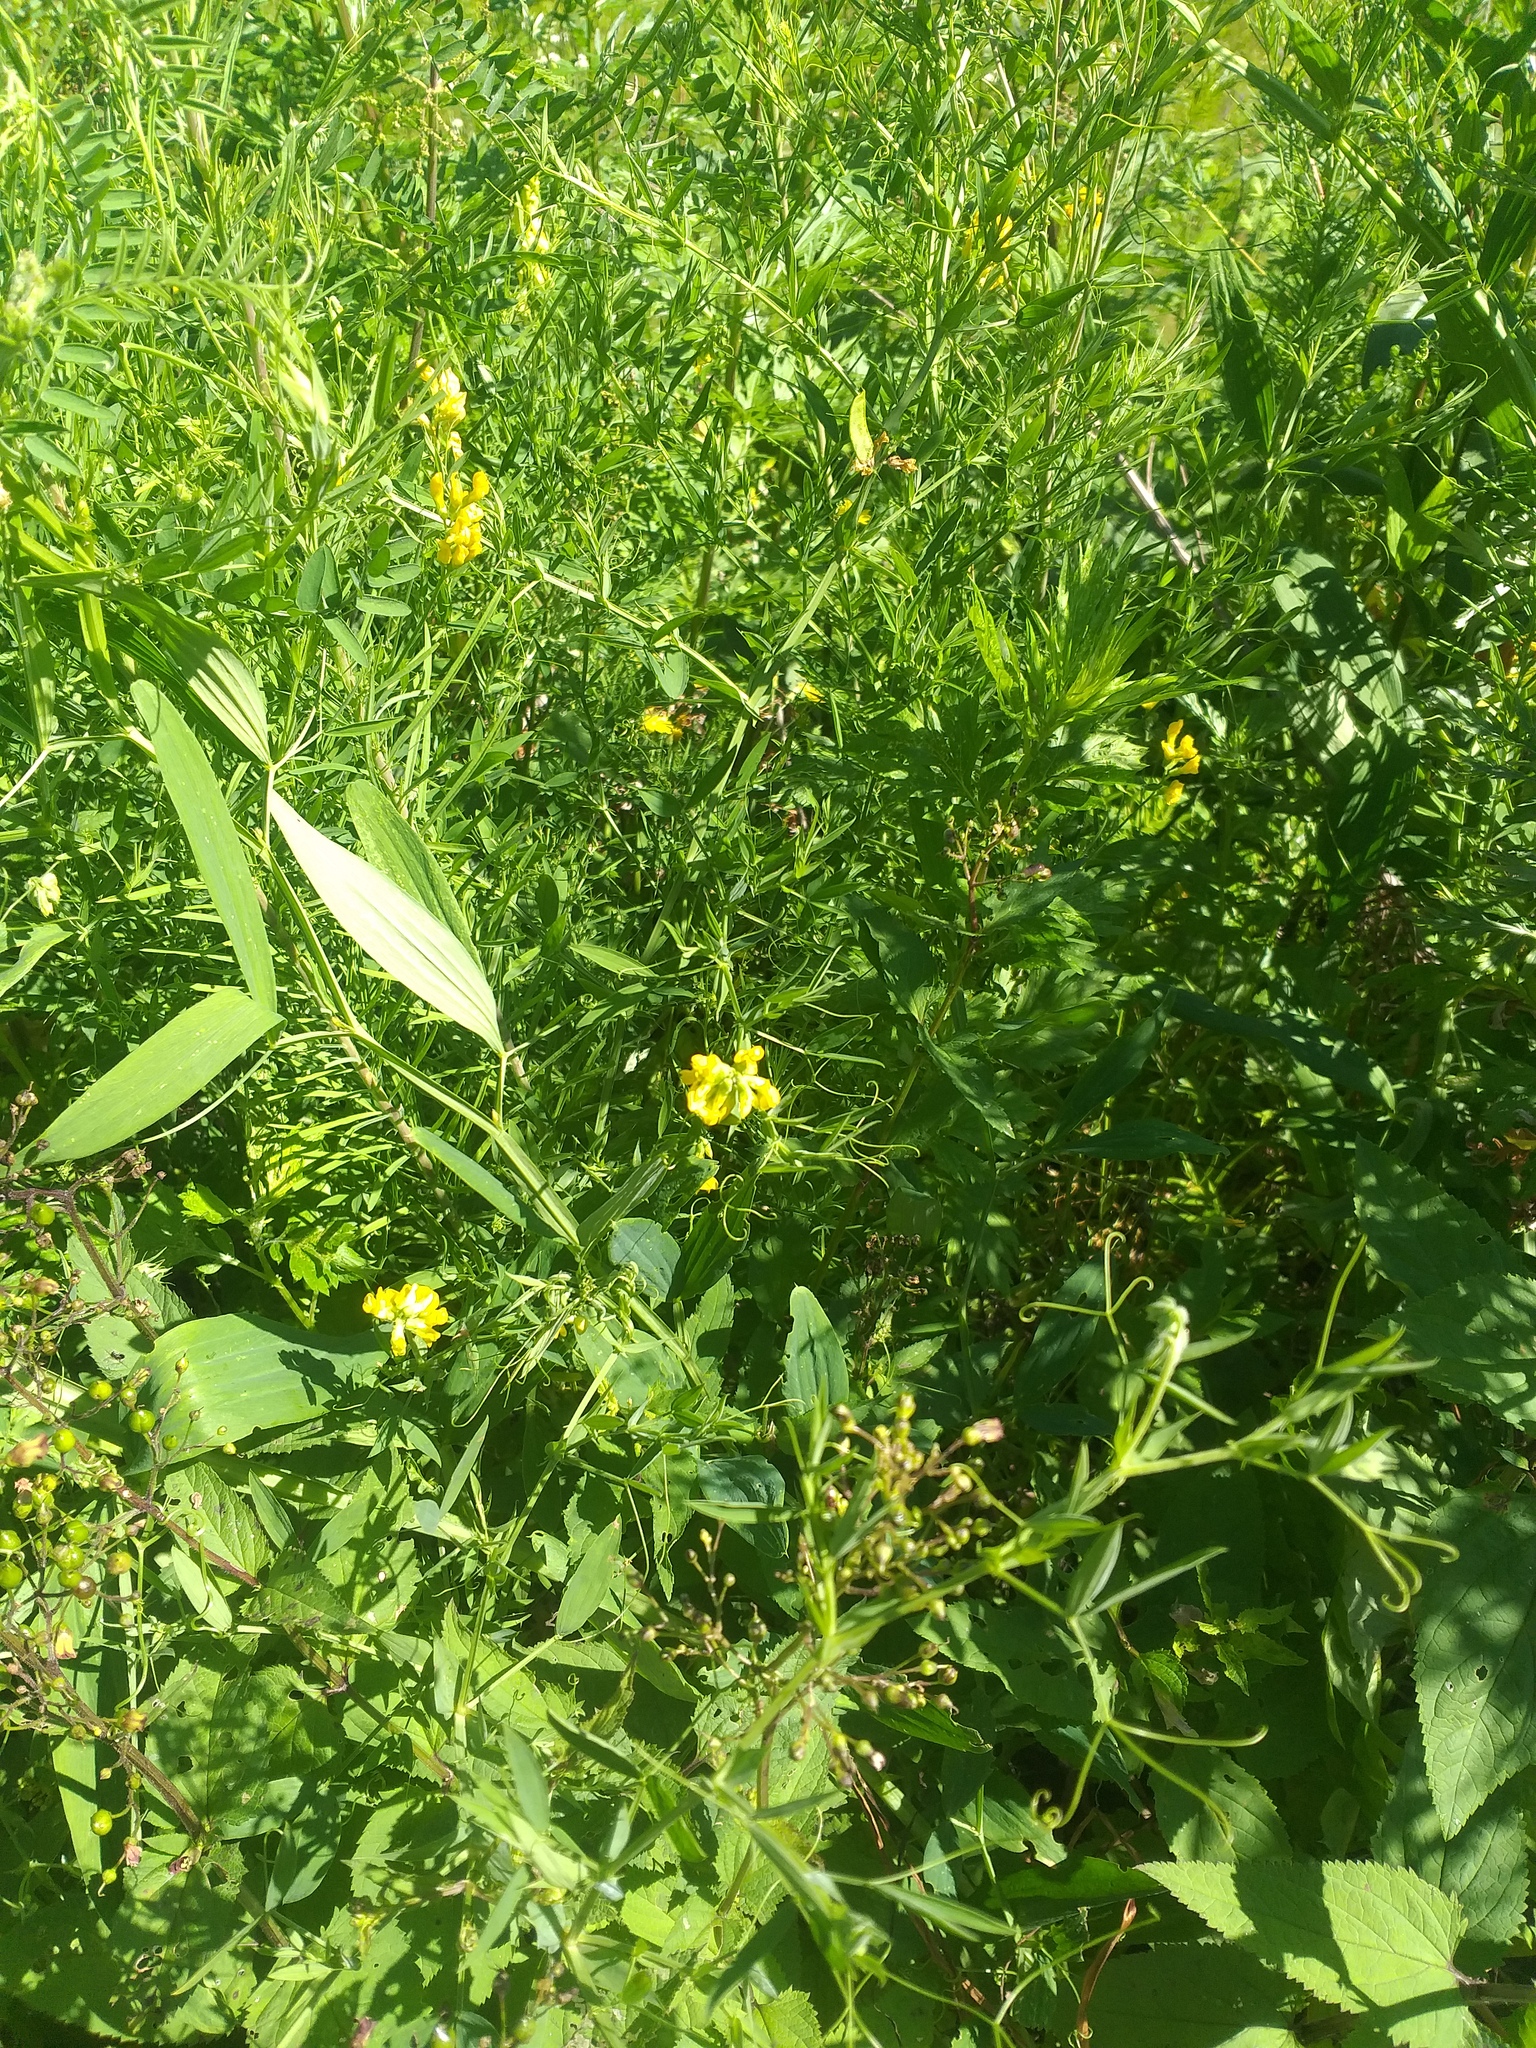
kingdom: Plantae
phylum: Tracheophyta
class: Magnoliopsida
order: Fabales
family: Fabaceae
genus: Lathyrus
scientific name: Lathyrus pratensis
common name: Meadow vetchling
